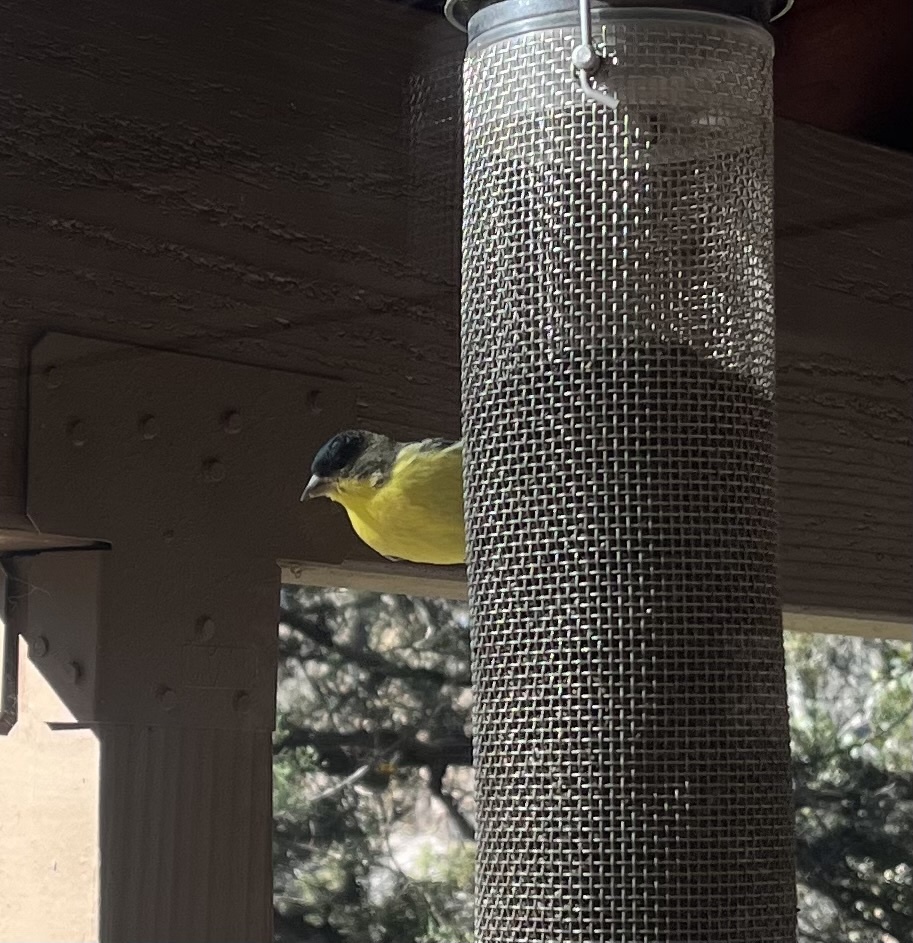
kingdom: Animalia
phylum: Chordata
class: Aves
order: Passeriformes
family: Fringillidae
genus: Spinus
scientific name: Spinus psaltria
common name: Lesser goldfinch
